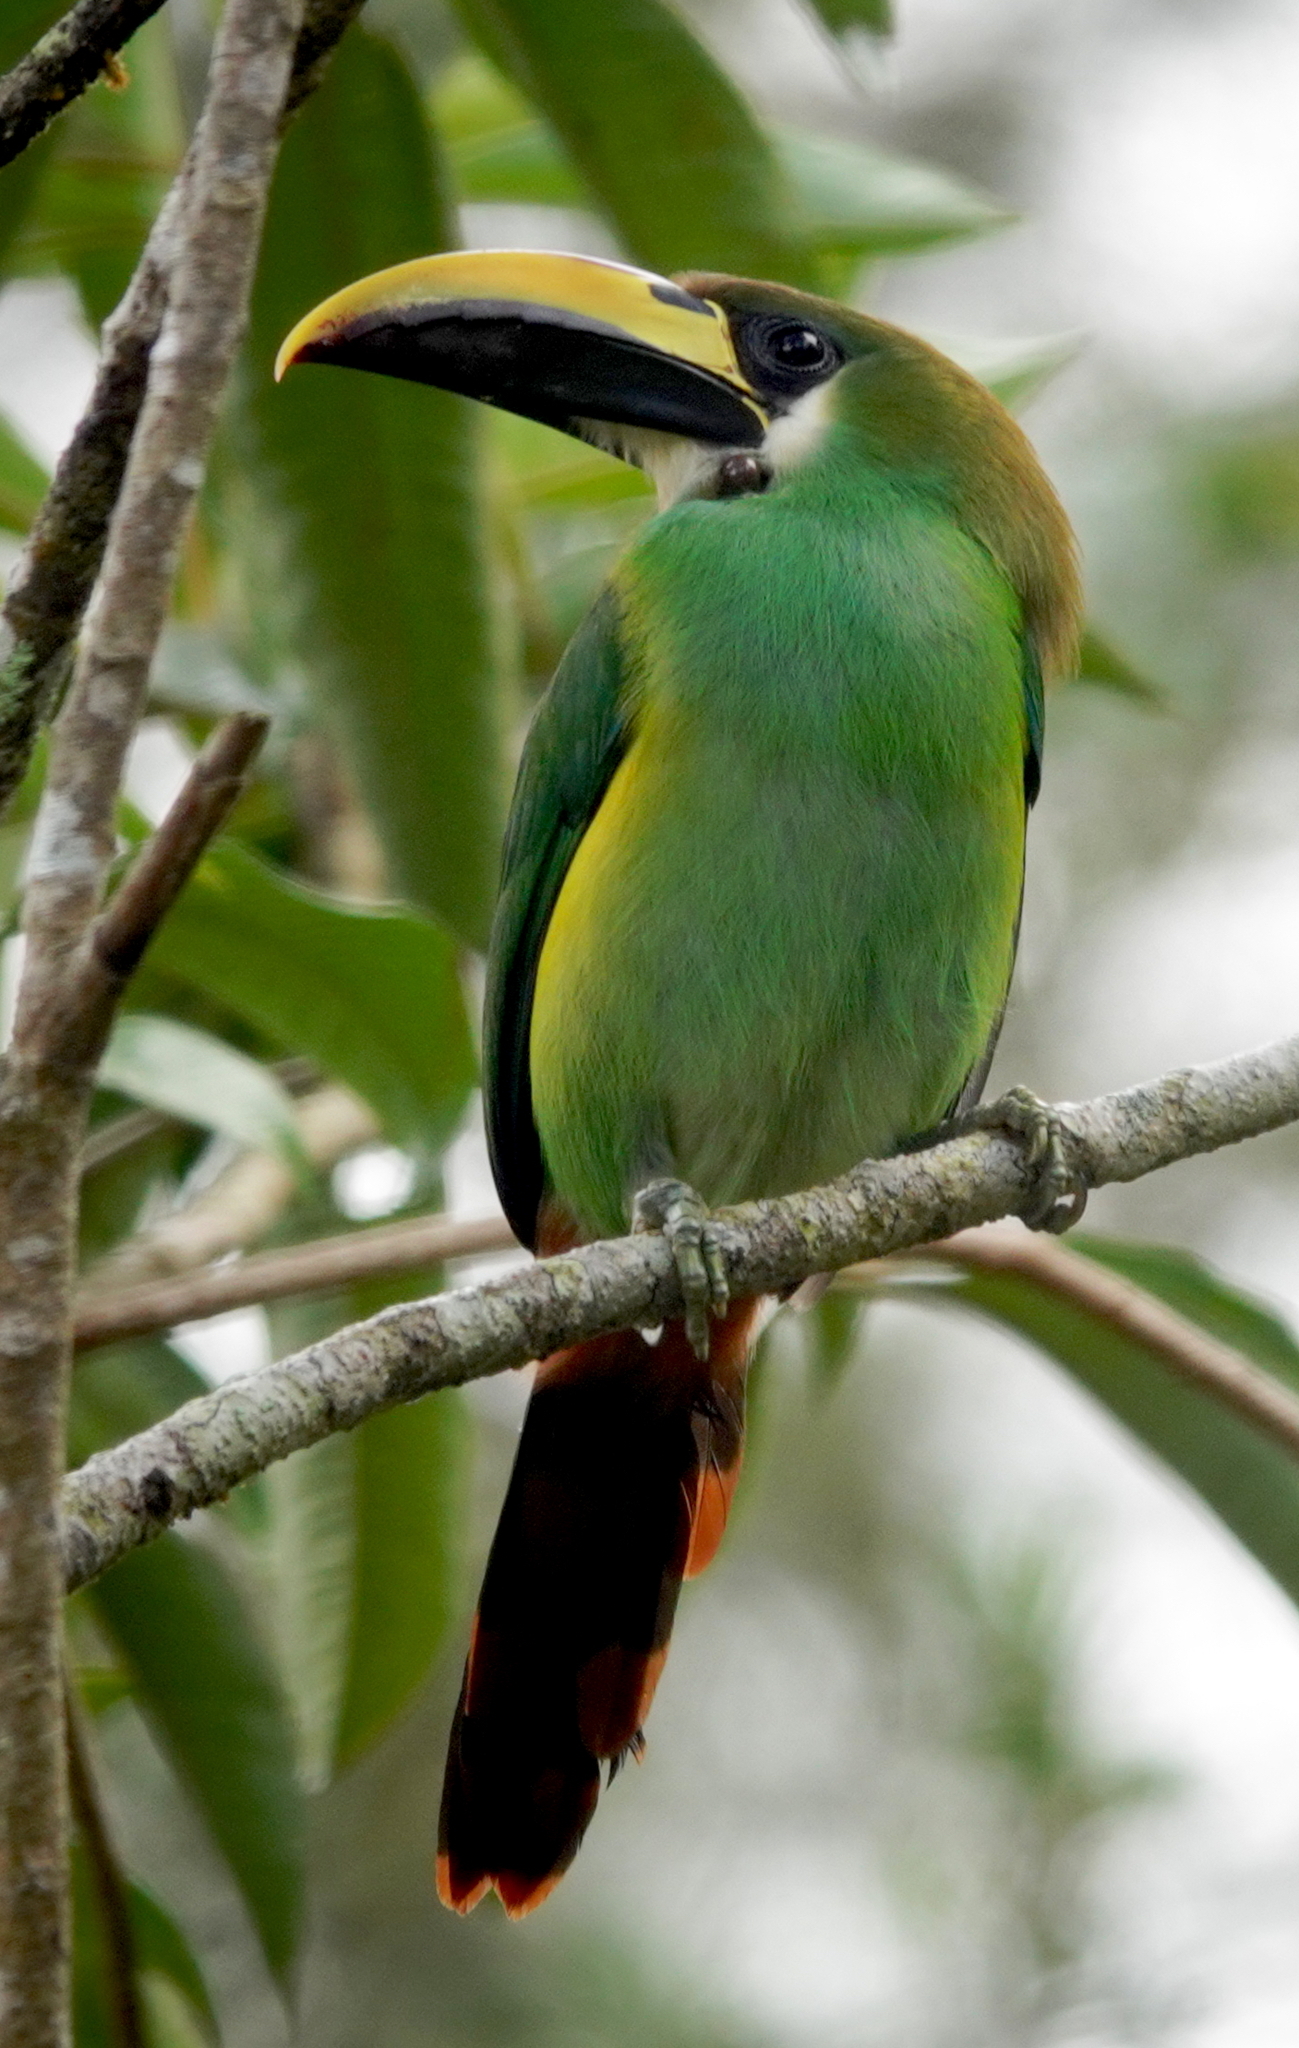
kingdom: Animalia
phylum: Chordata
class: Aves
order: Piciformes
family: Ramphastidae
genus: Aulacorhynchus
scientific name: Aulacorhynchus prasinus
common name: Emerald toucanet
